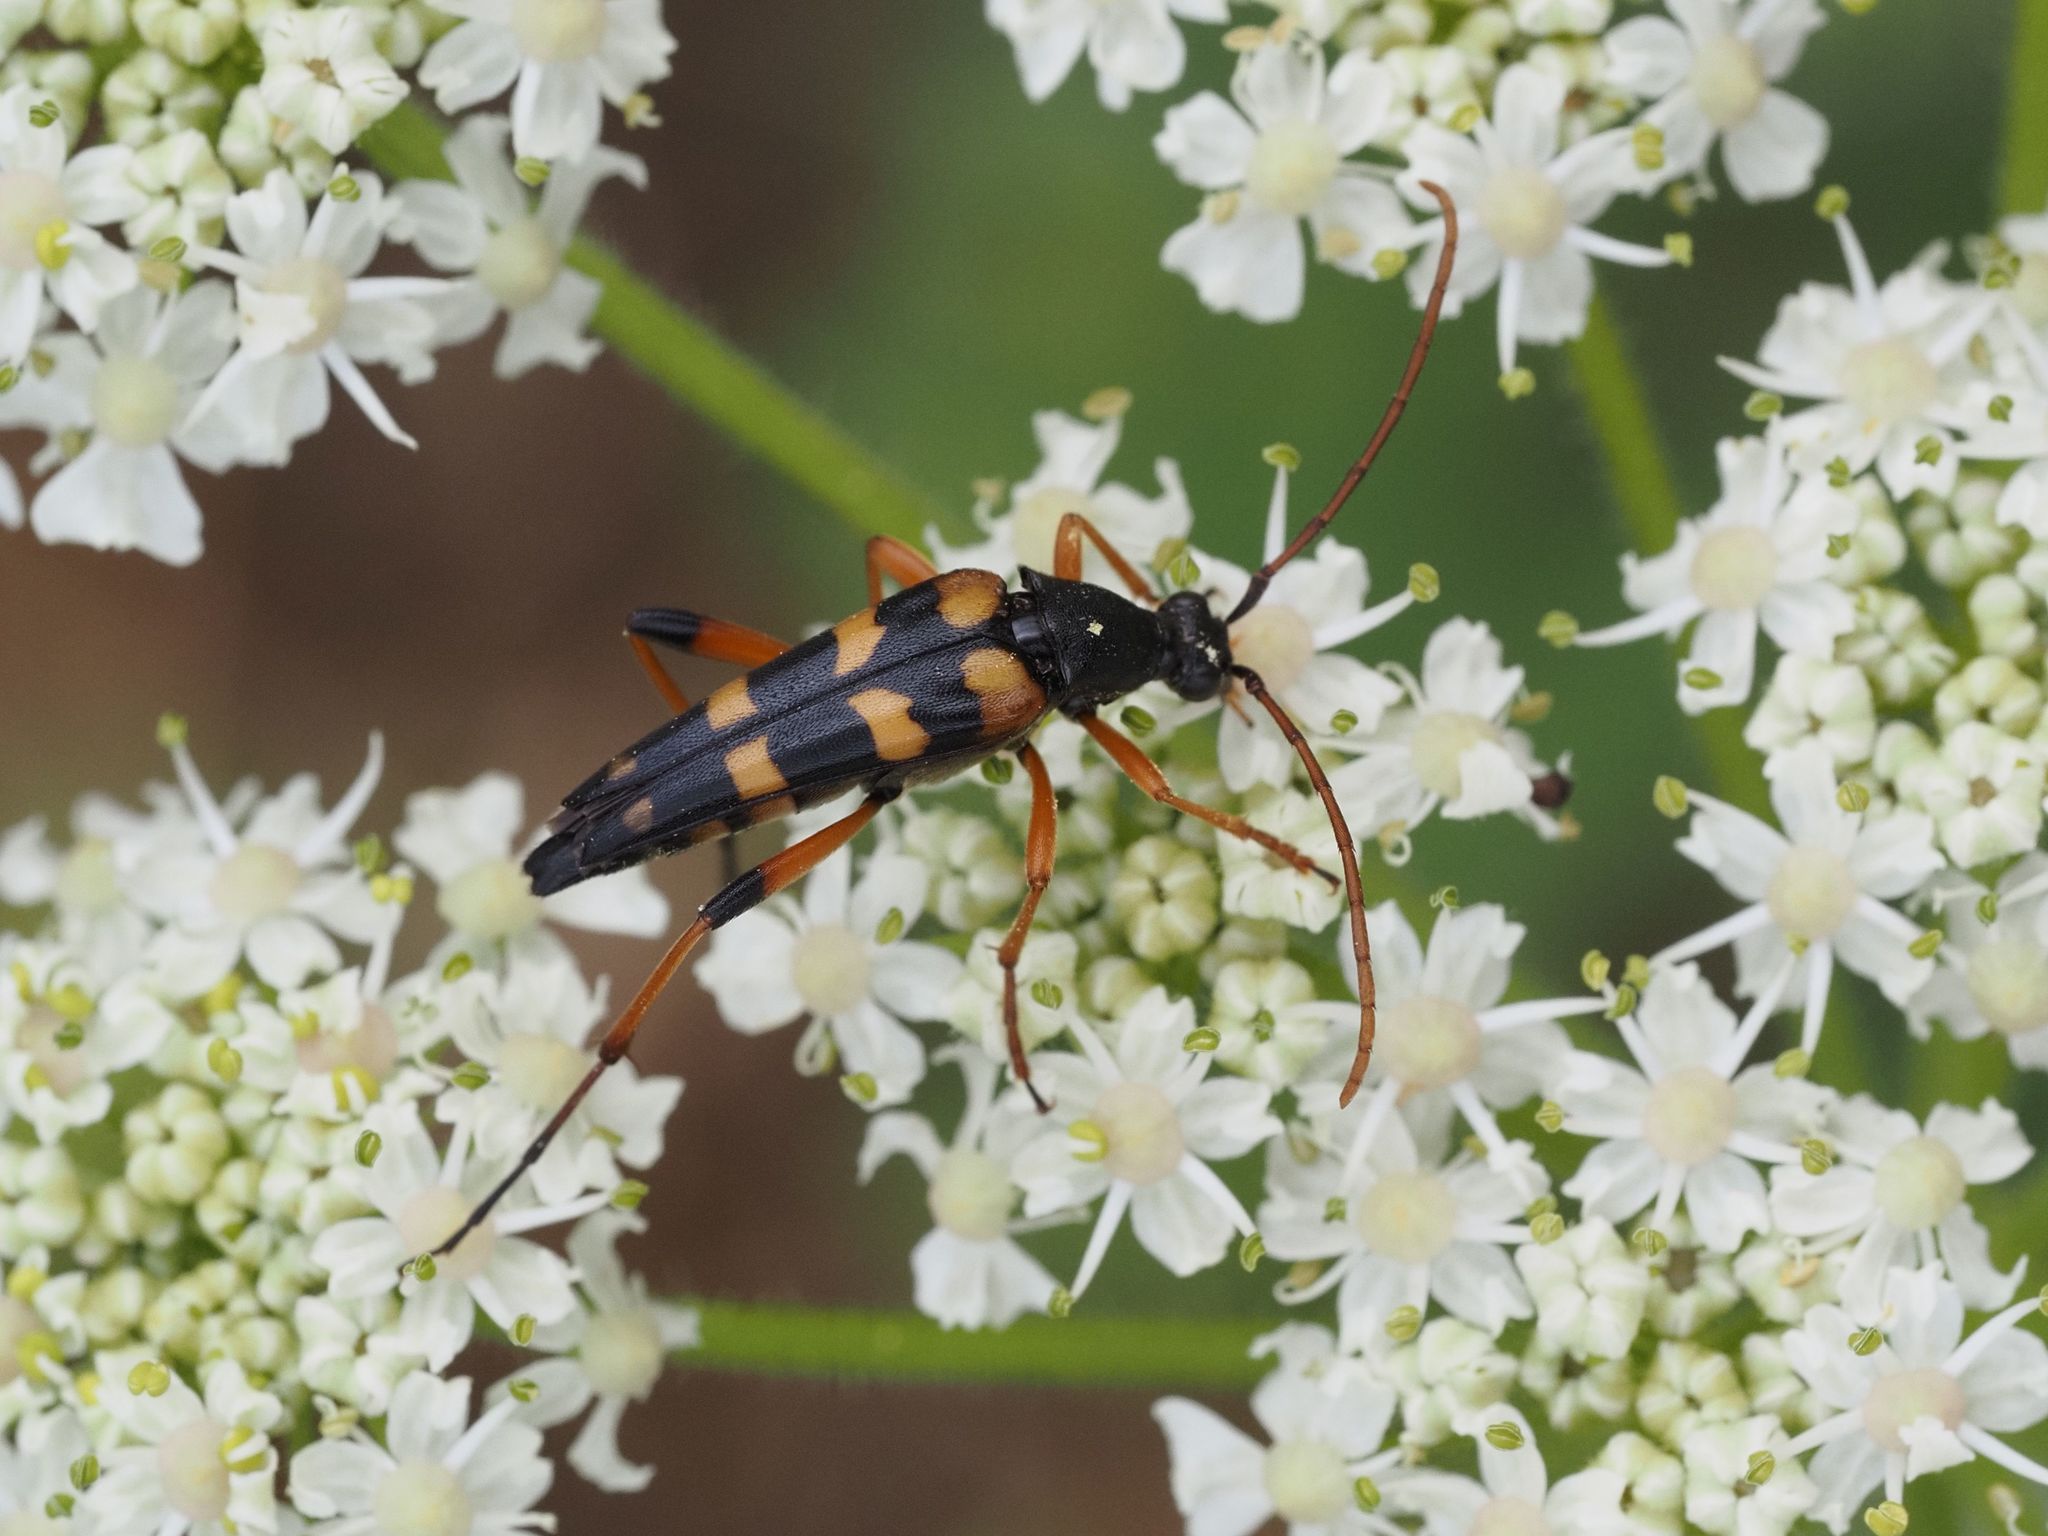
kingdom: Animalia
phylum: Arthropoda
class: Insecta
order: Coleoptera
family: Cerambycidae
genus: Strangalia
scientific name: Strangalia attenuata
